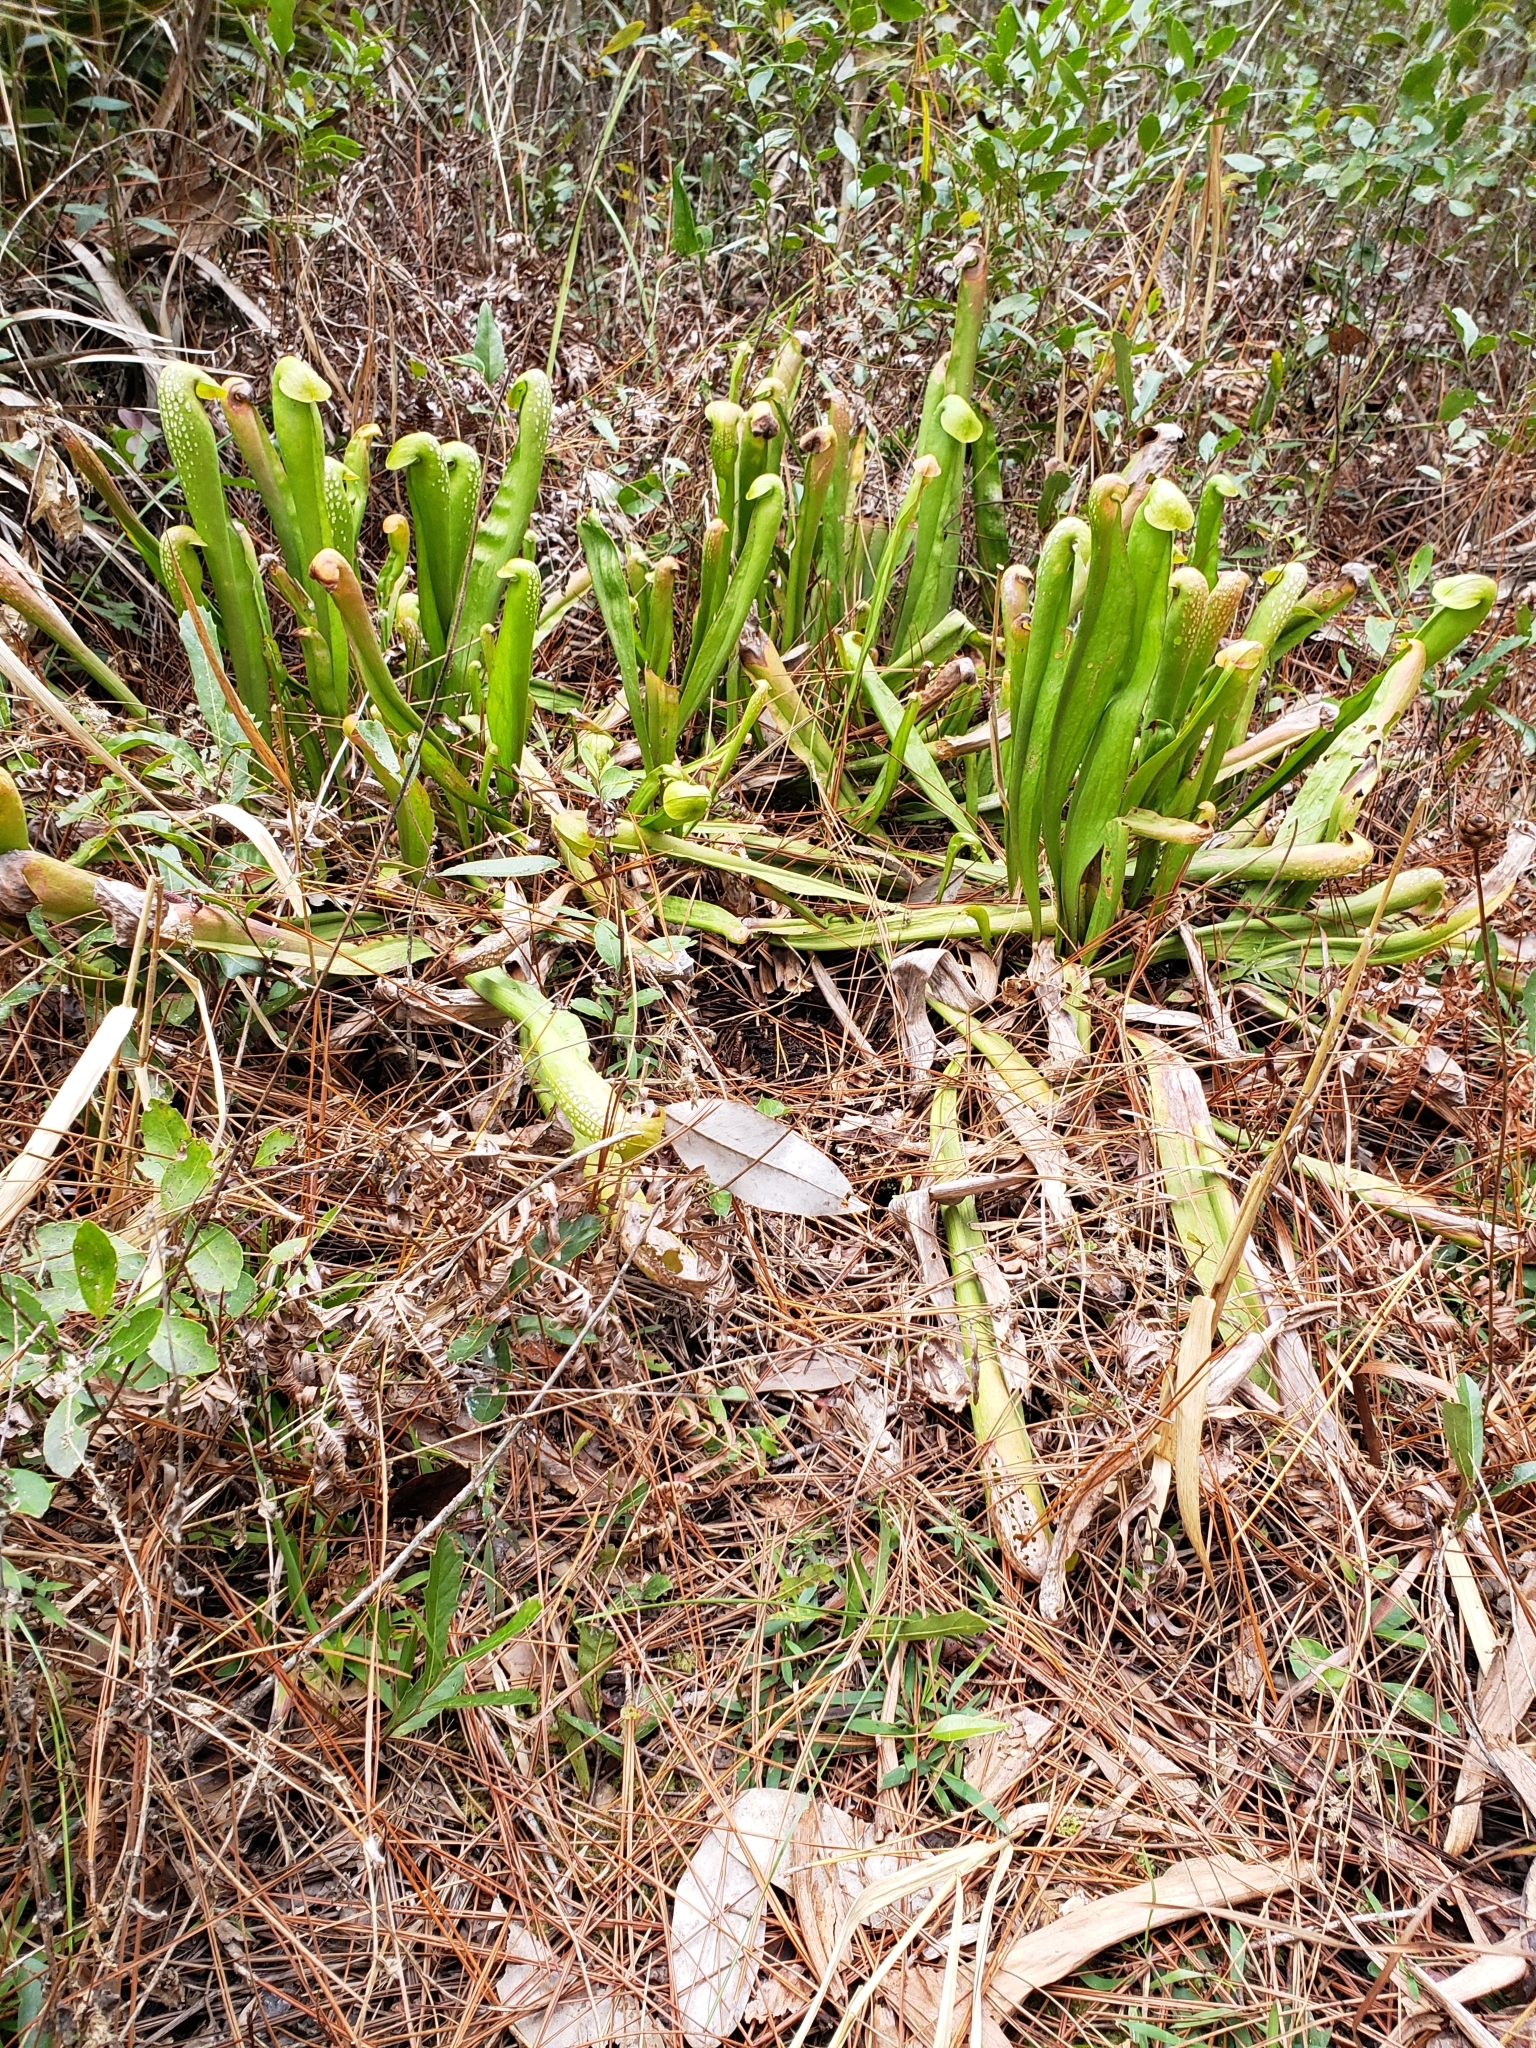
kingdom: Plantae
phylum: Tracheophyta
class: Magnoliopsida
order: Ericales
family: Sarraceniaceae
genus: Sarracenia
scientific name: Sarracenia minor
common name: Rainhat-trumpet
